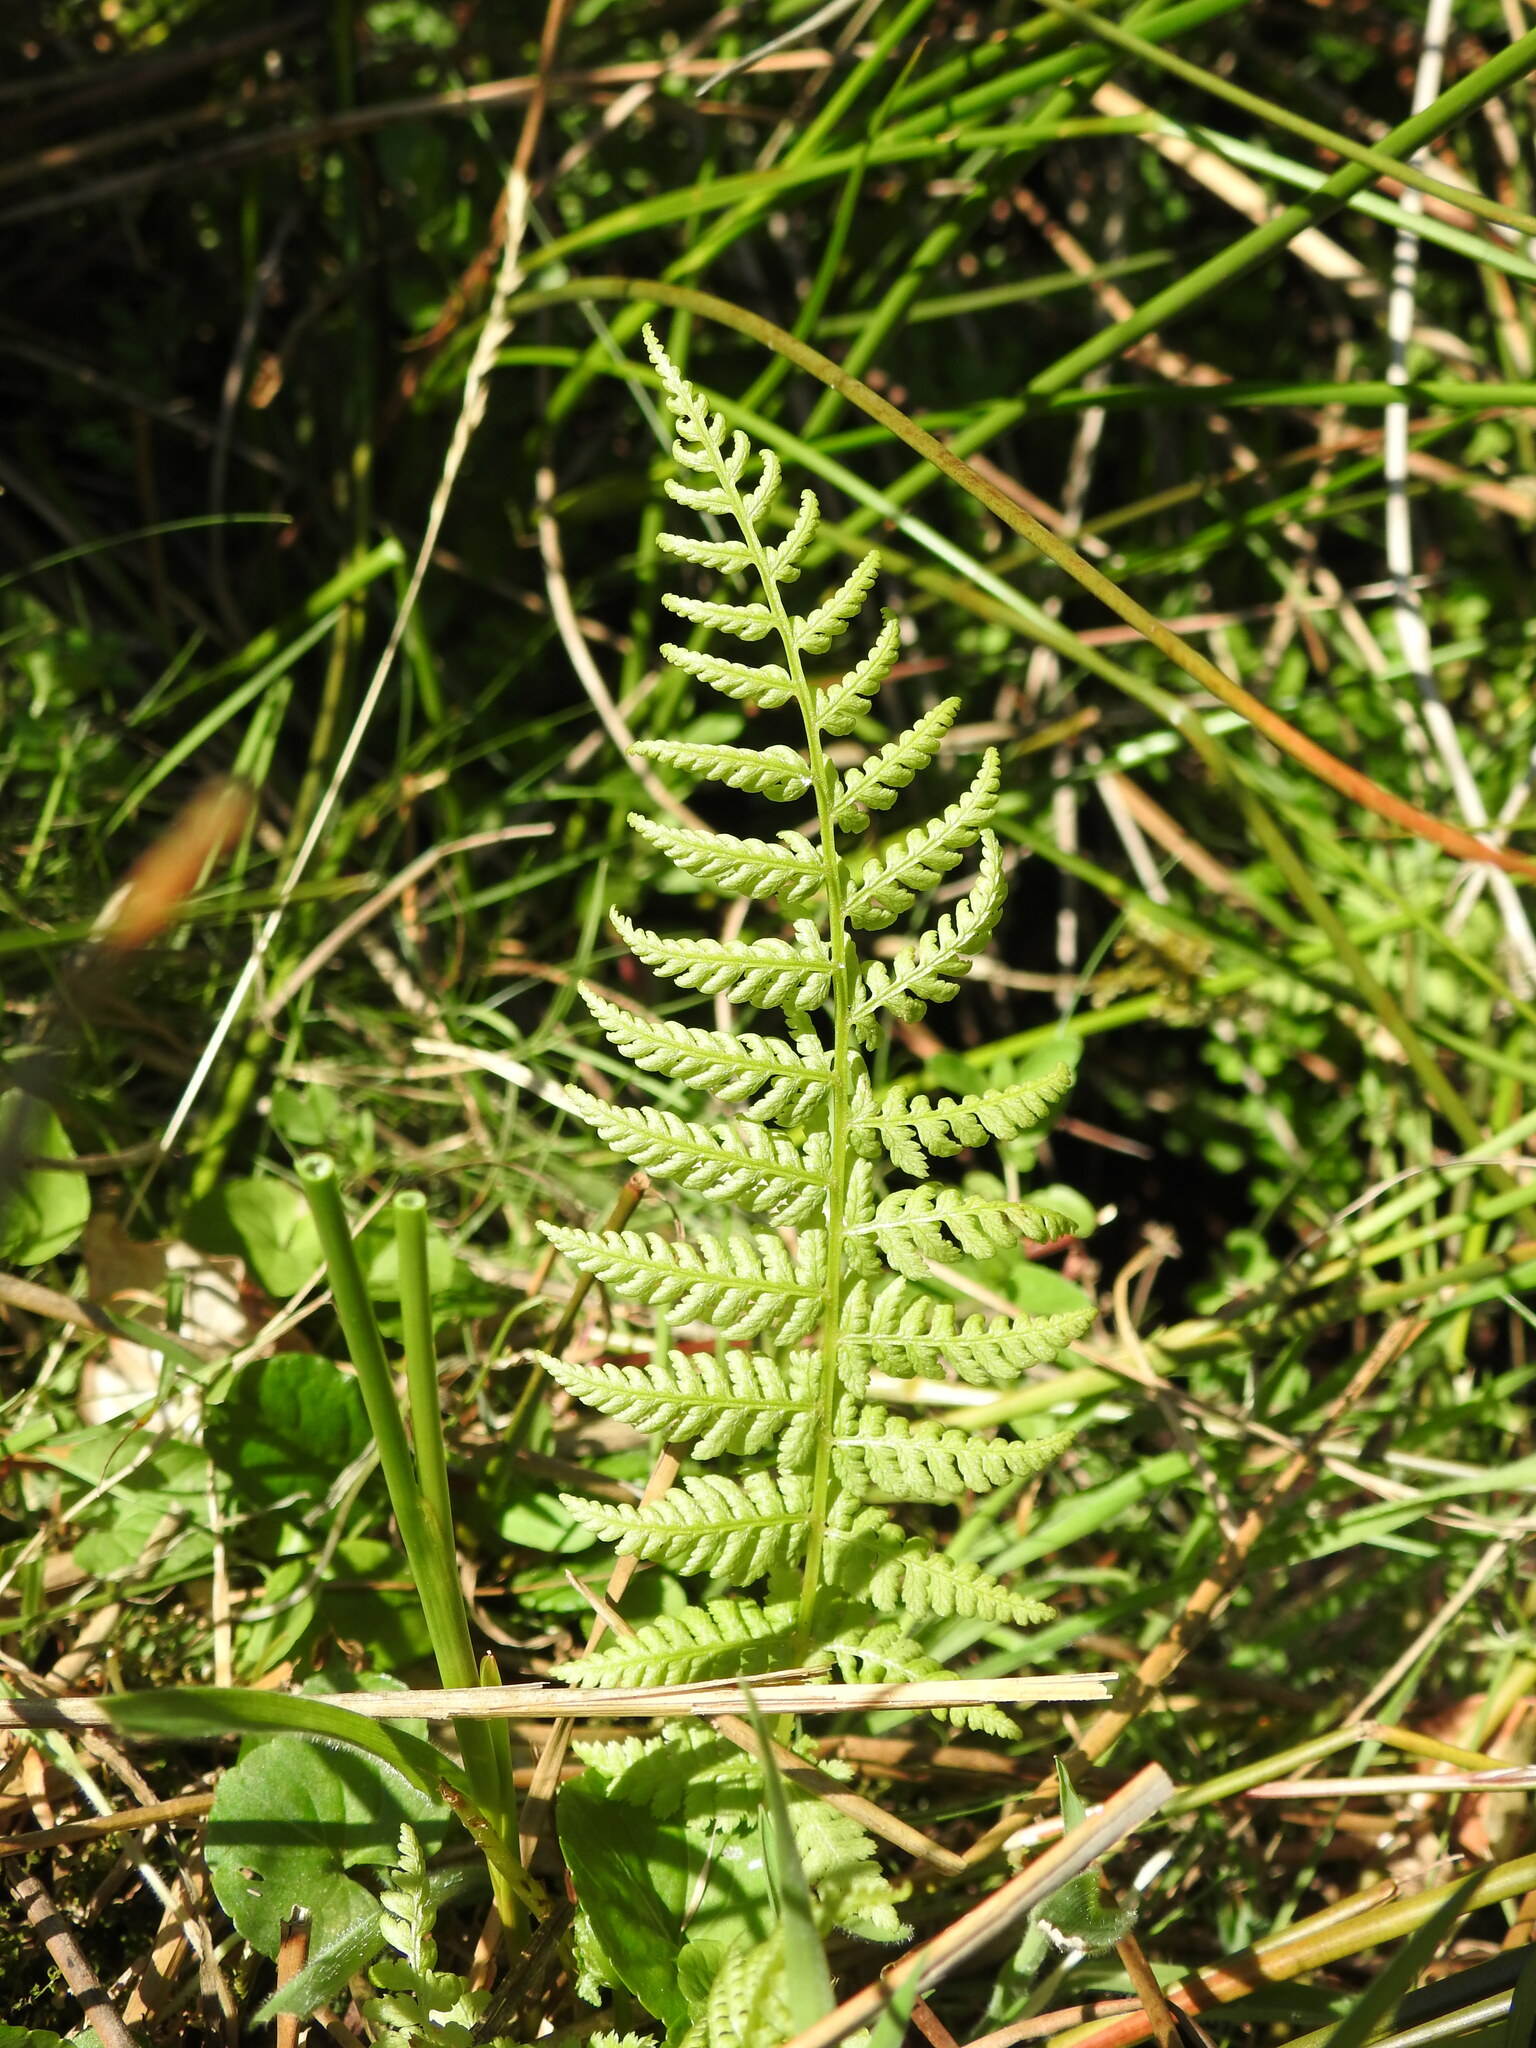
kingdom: Plantae
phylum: Tracheophyta
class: Polypodiopsida
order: Polypodiales
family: Athyriaceae
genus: Athyrium
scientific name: Athyrium filix-femina
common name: Lady fern
